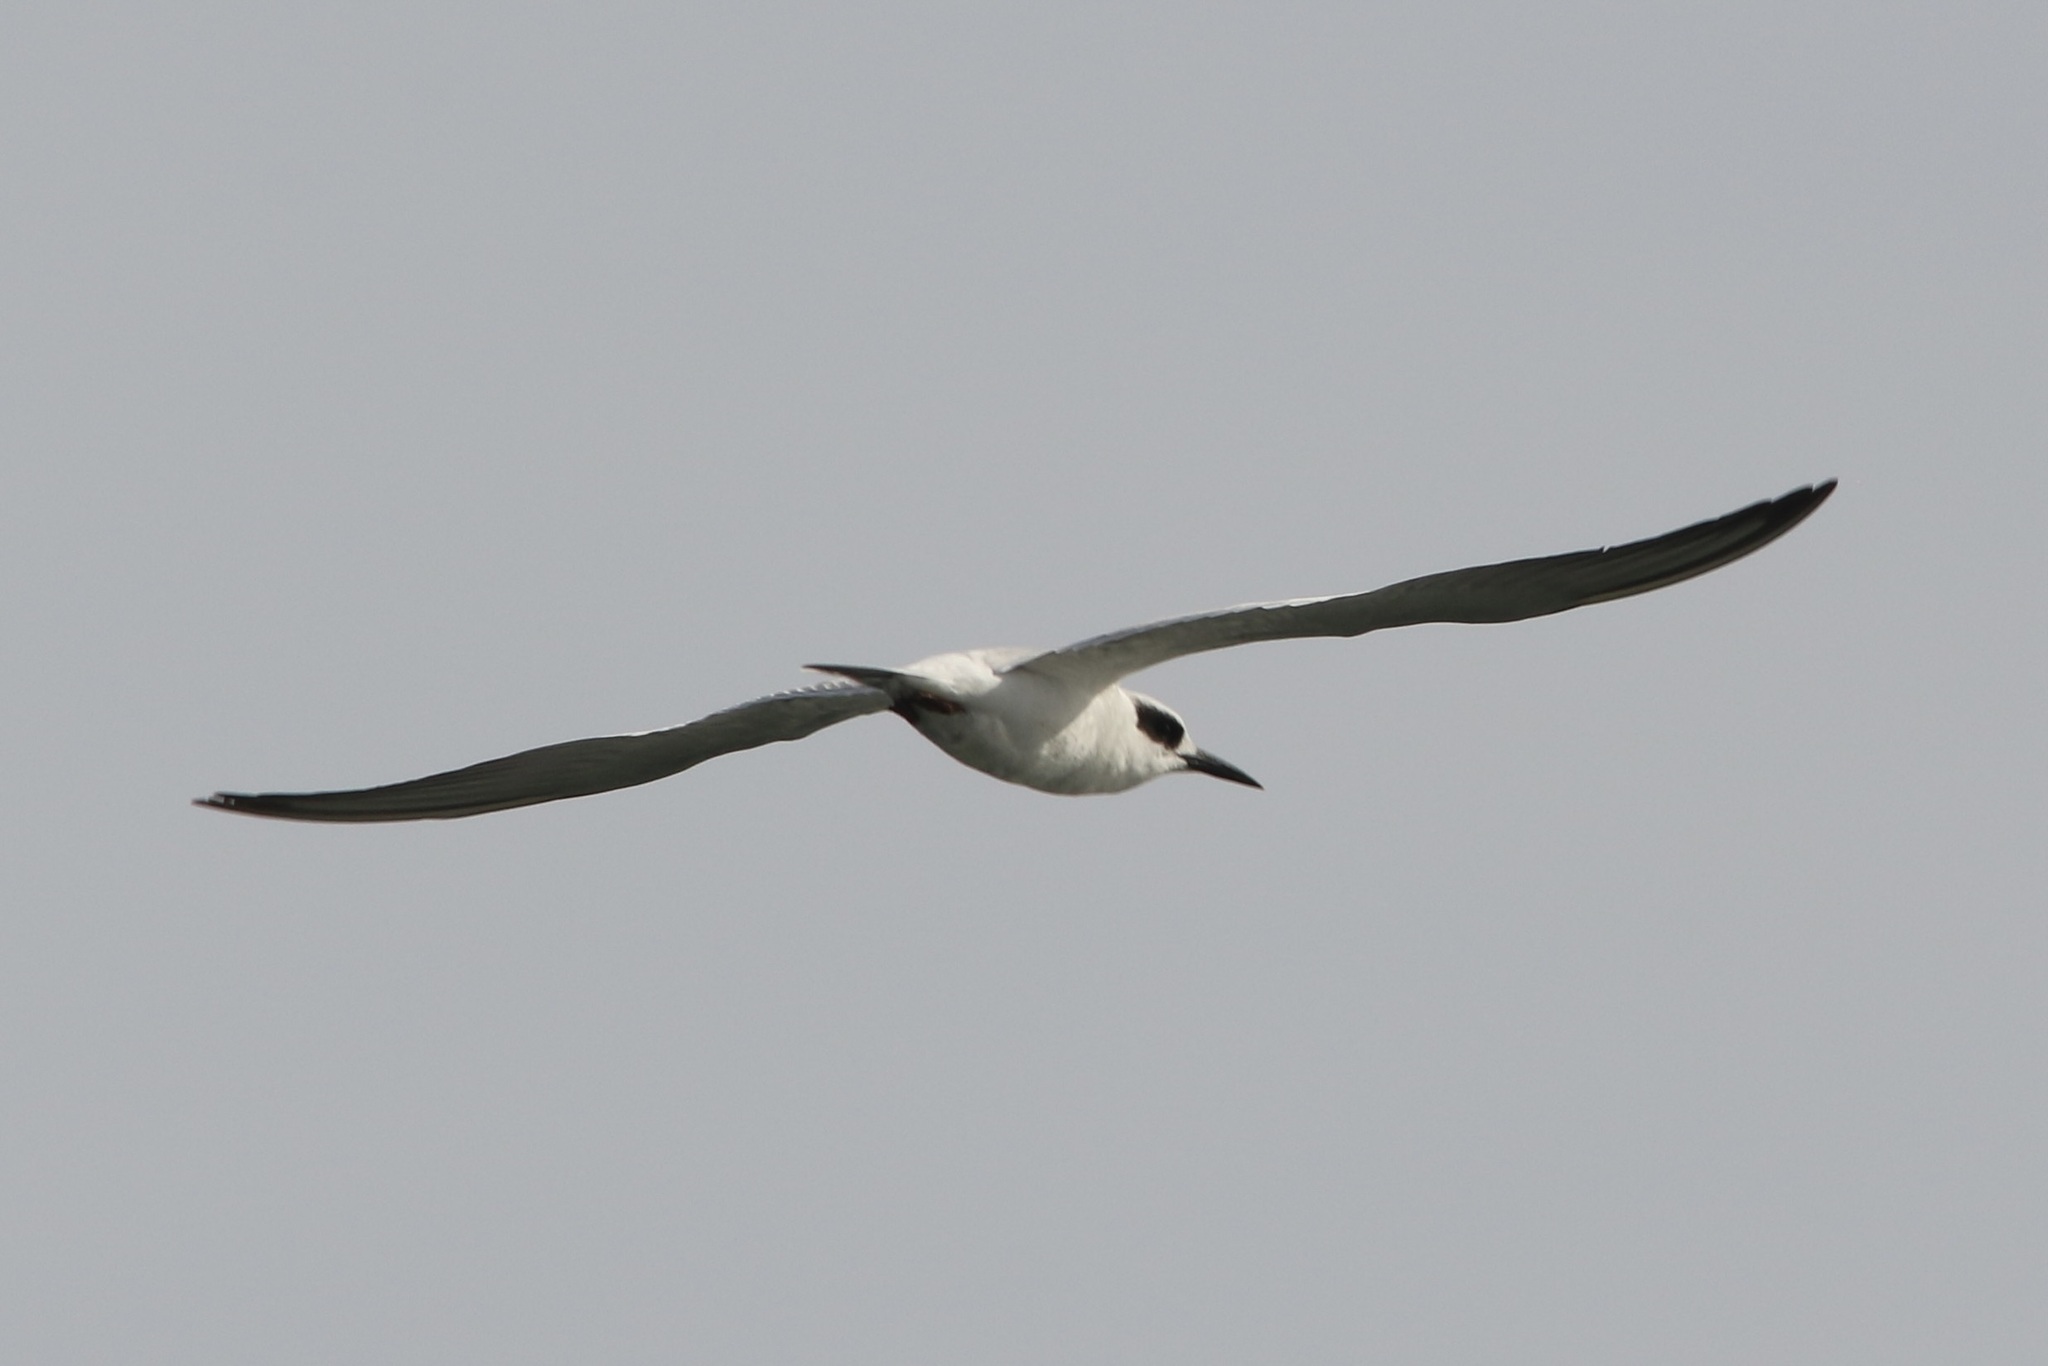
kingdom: Animalia
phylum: Chordata
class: Aves
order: Charadriiformes
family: Laridae
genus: Sterna
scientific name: Sterna forsteri
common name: Forster's tern
